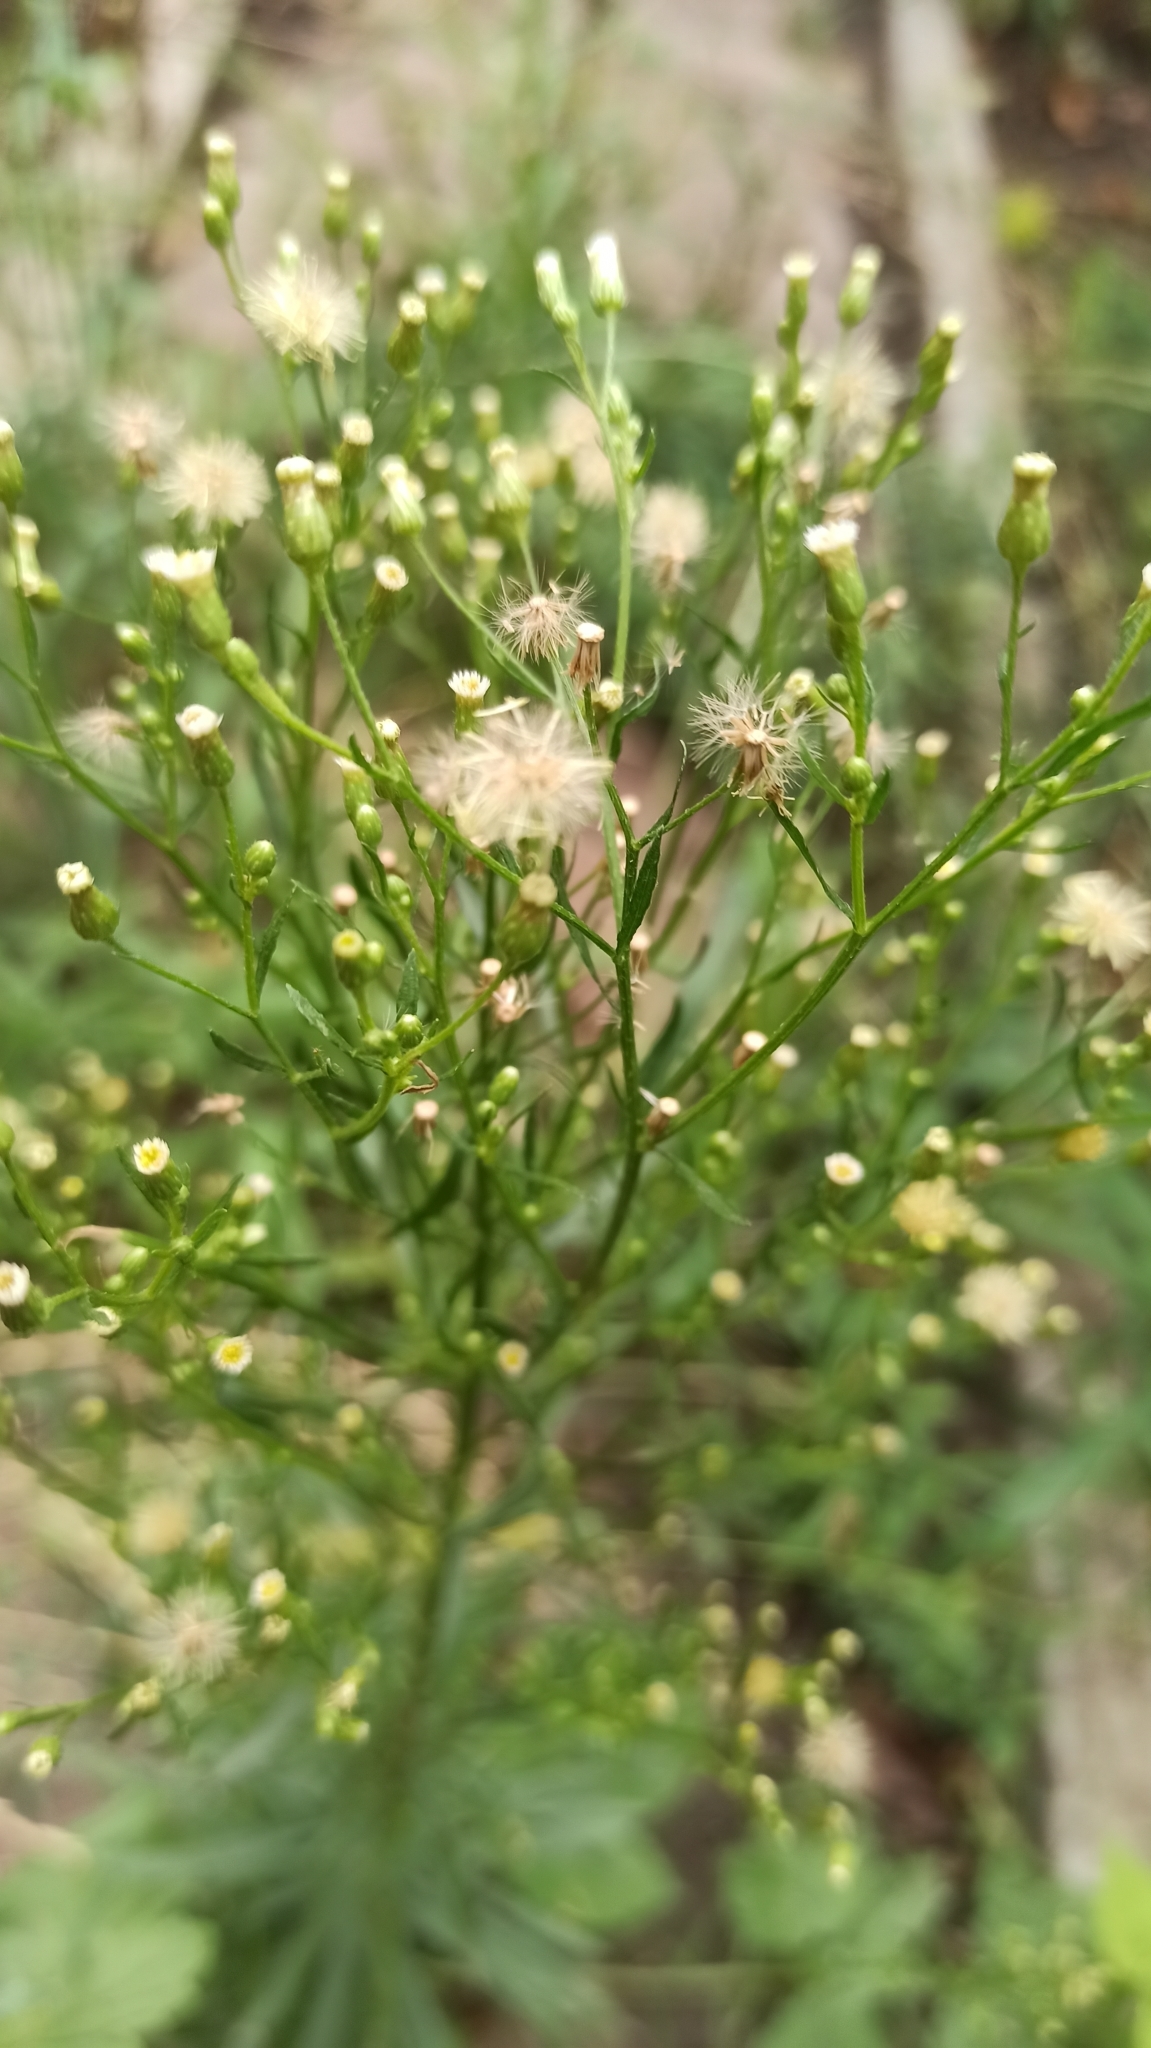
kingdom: Plantae
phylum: Tracheophyta
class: Magnoliopsida
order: Asterales
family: Asteraceae
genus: Erigeron
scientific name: Erigeron canadensis
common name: Canadian fleabane
